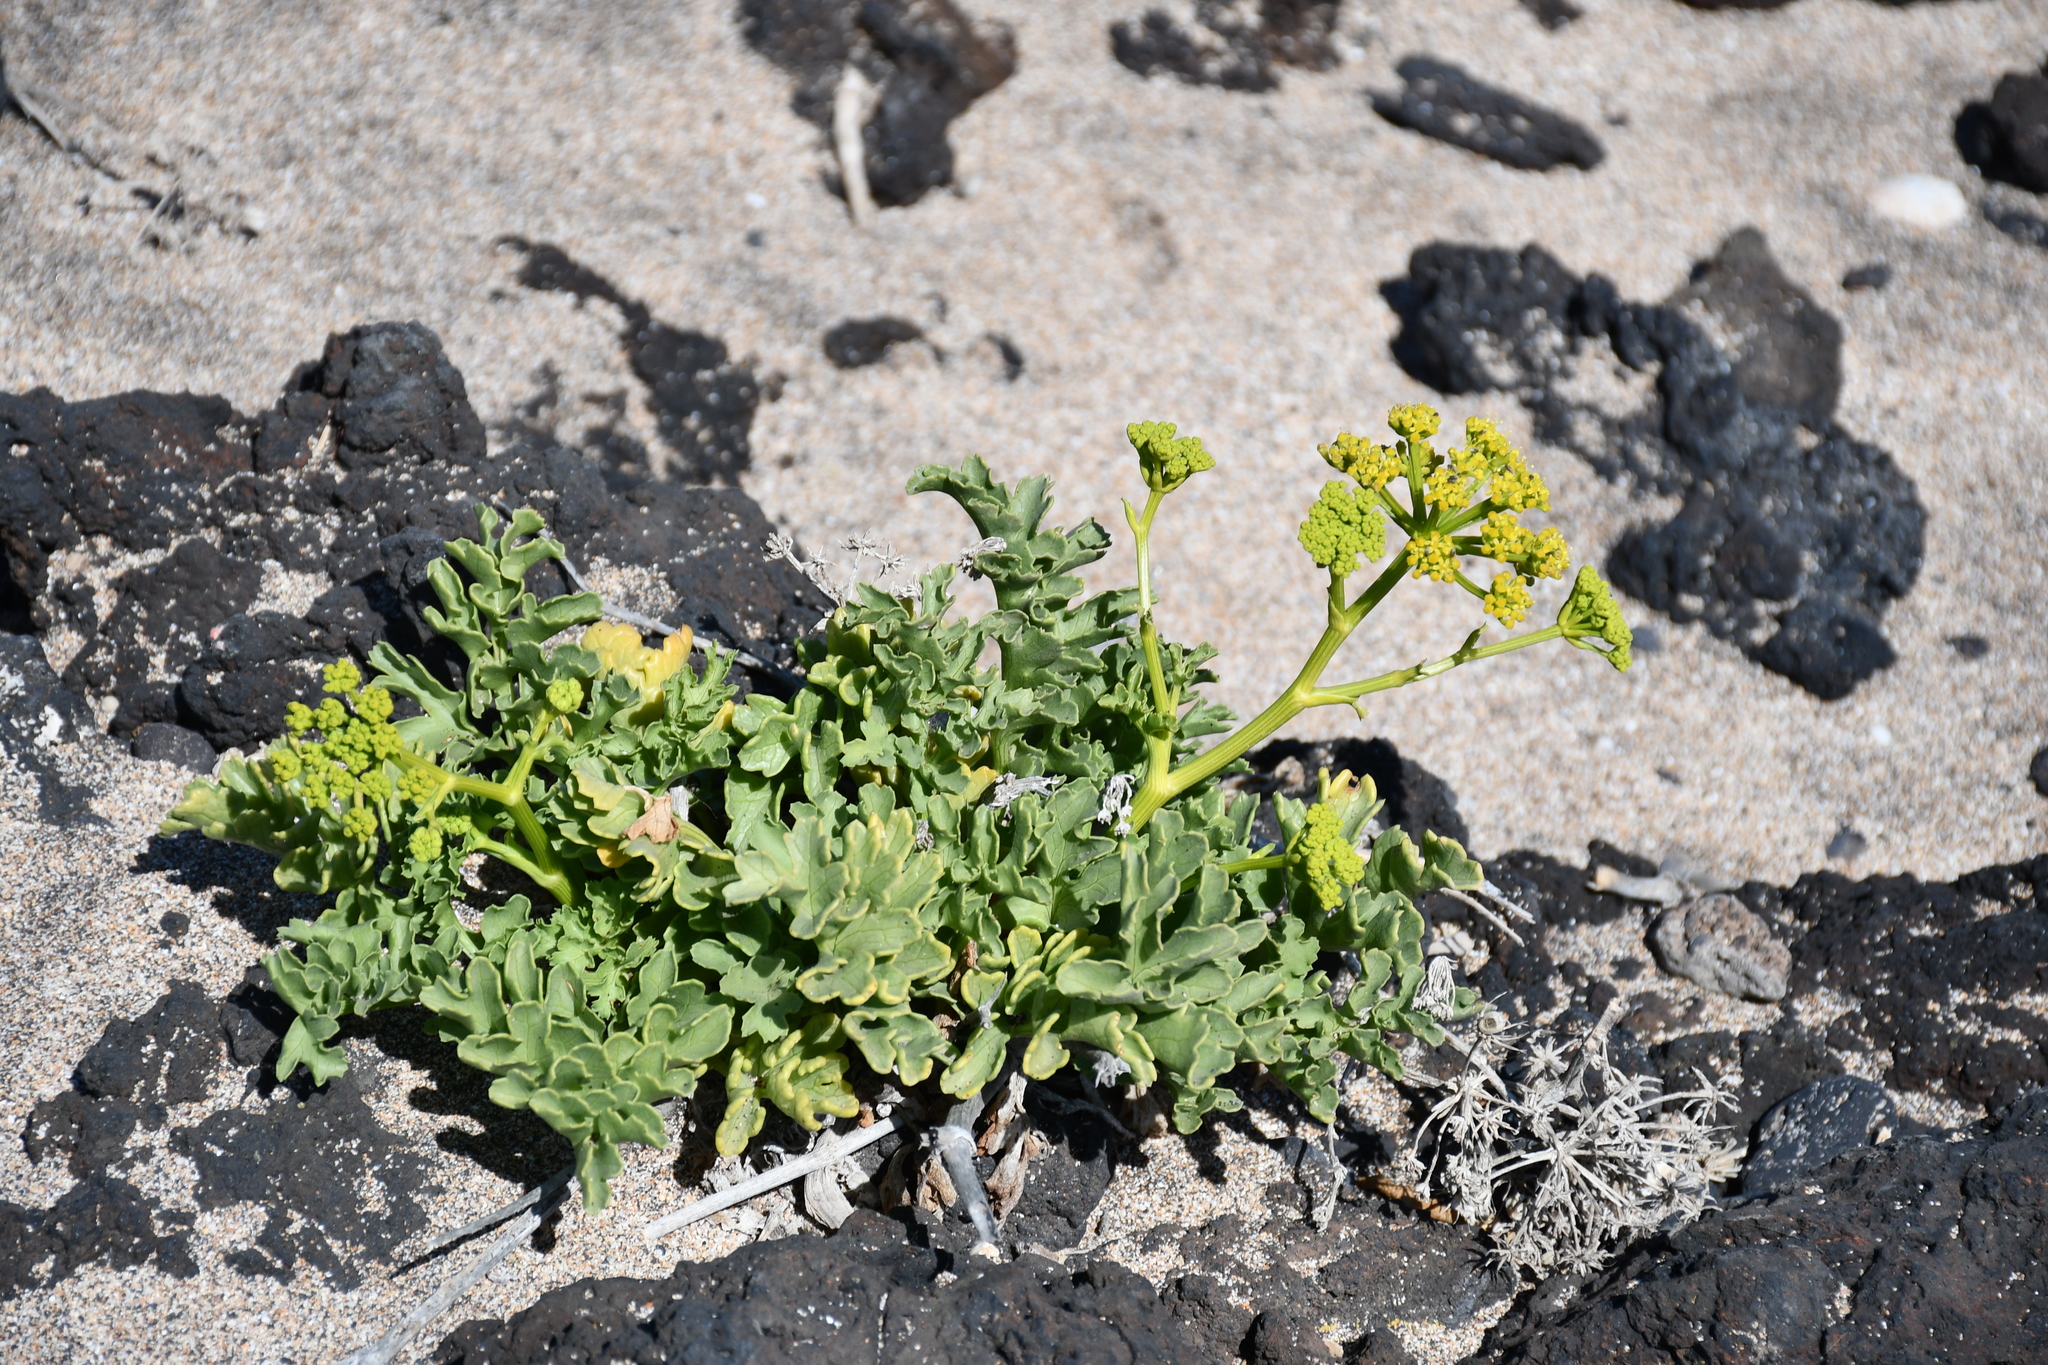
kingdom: Plantae
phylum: Tracheophyta
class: Magnoliopsida
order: Apiales
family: Apiaceae
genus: Astydamia
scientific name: Astydamia latifolia
